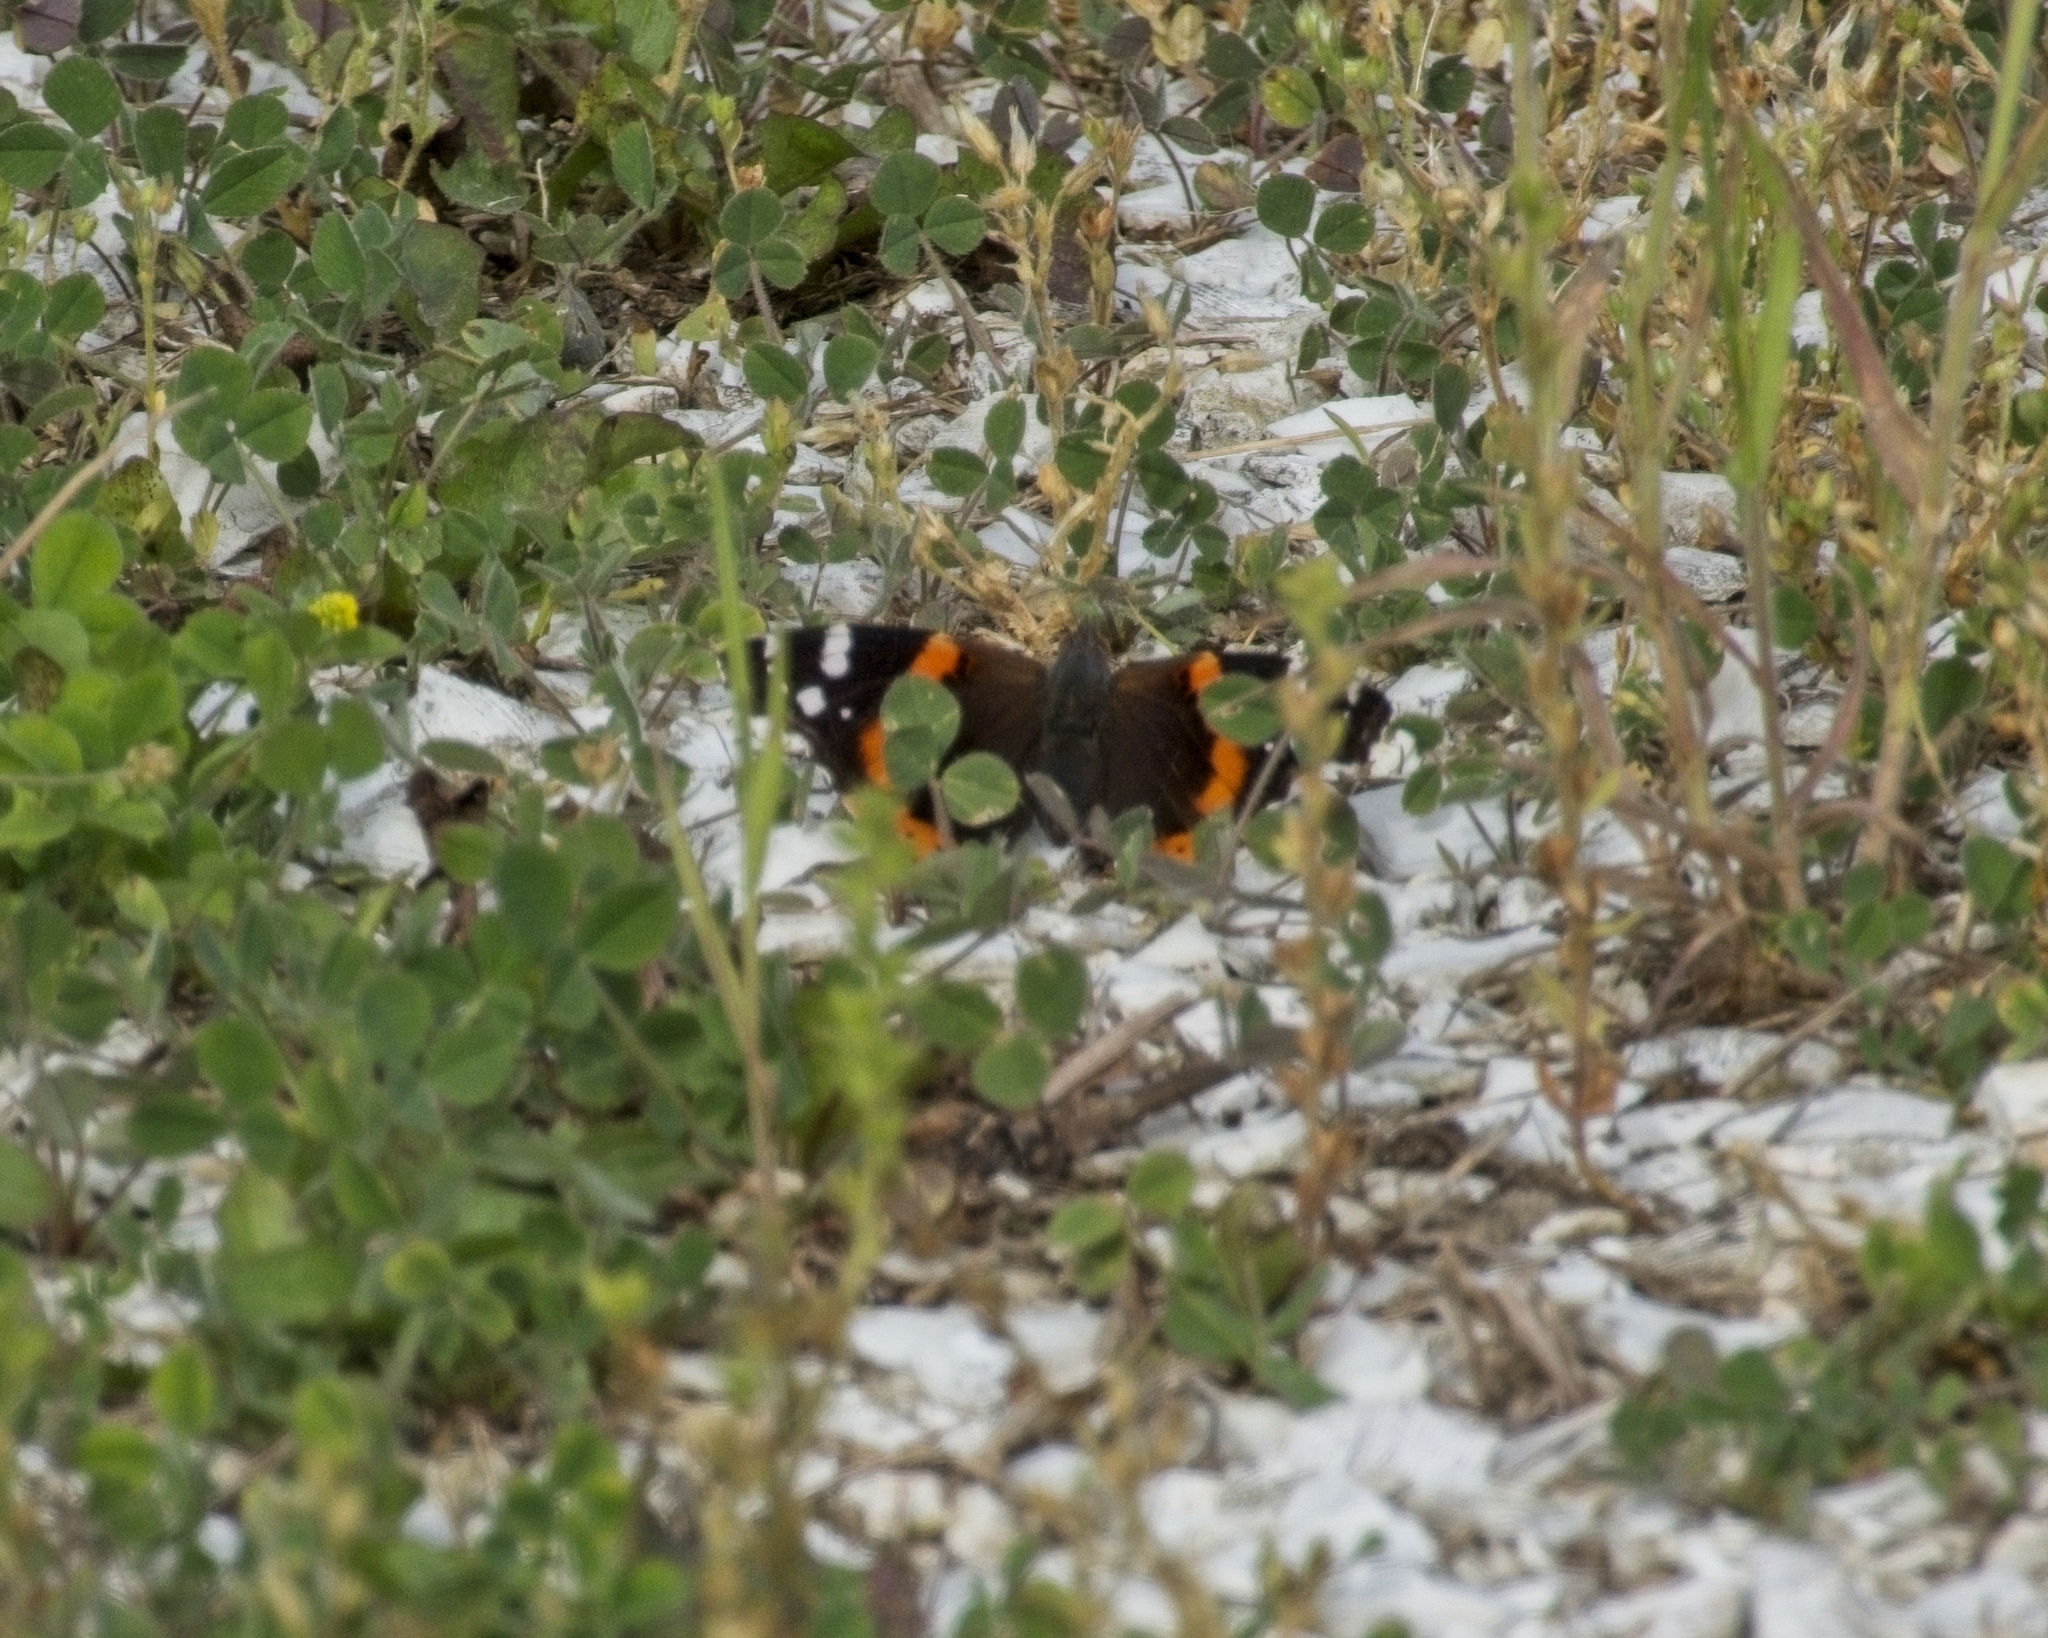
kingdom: Animalia
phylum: Arthropoda
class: Insecta
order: Lepidoptera
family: Nymphalidae
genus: Vanessa
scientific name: Vanessa atalanta
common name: Red admiral
